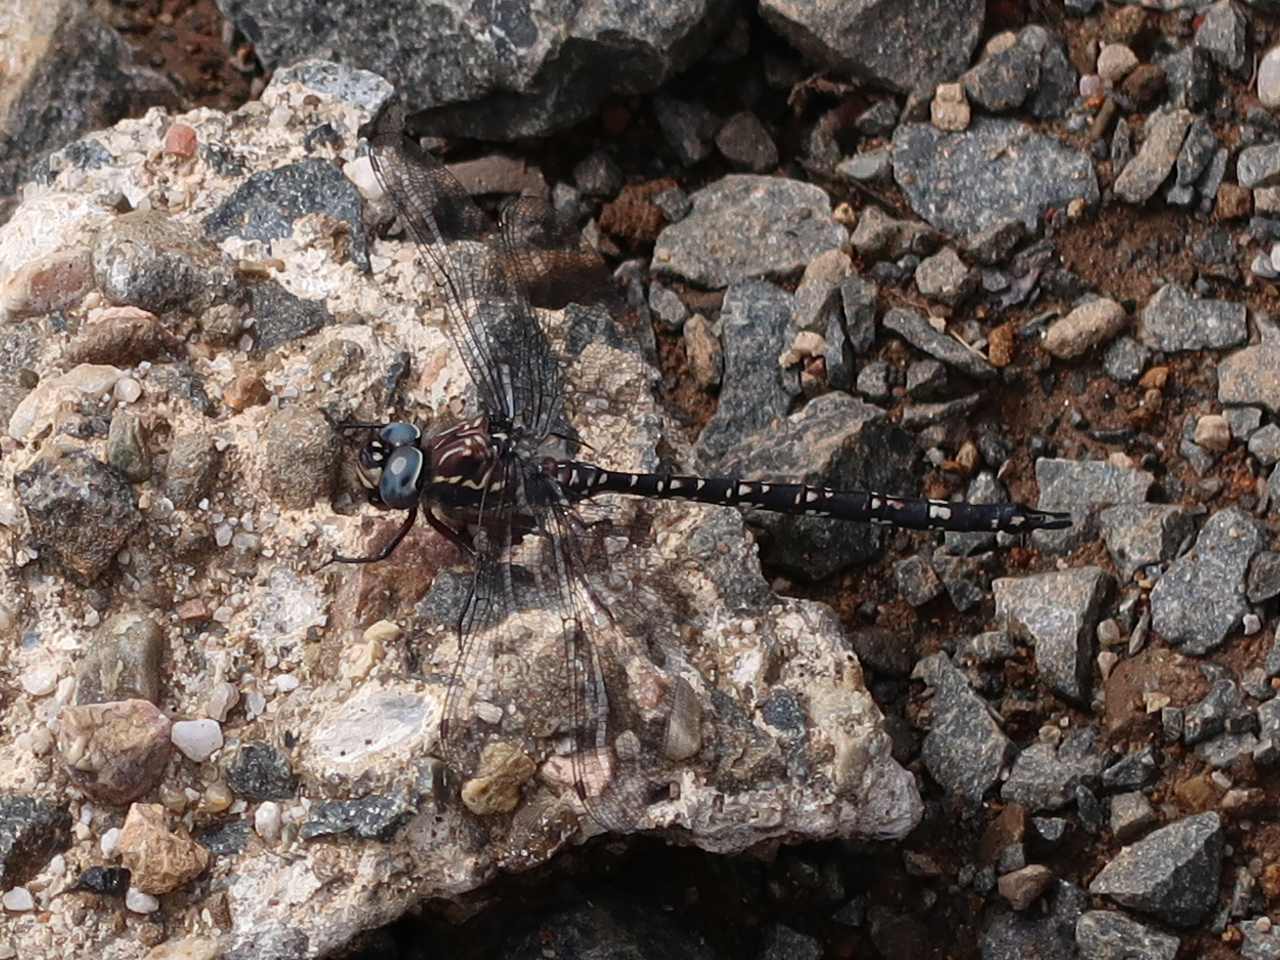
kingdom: Animalia
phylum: Arthropoda
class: Insecta
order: Odonata
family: Aeshnidae
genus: Austroaeschna
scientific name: Austroaeschna parvistigma
